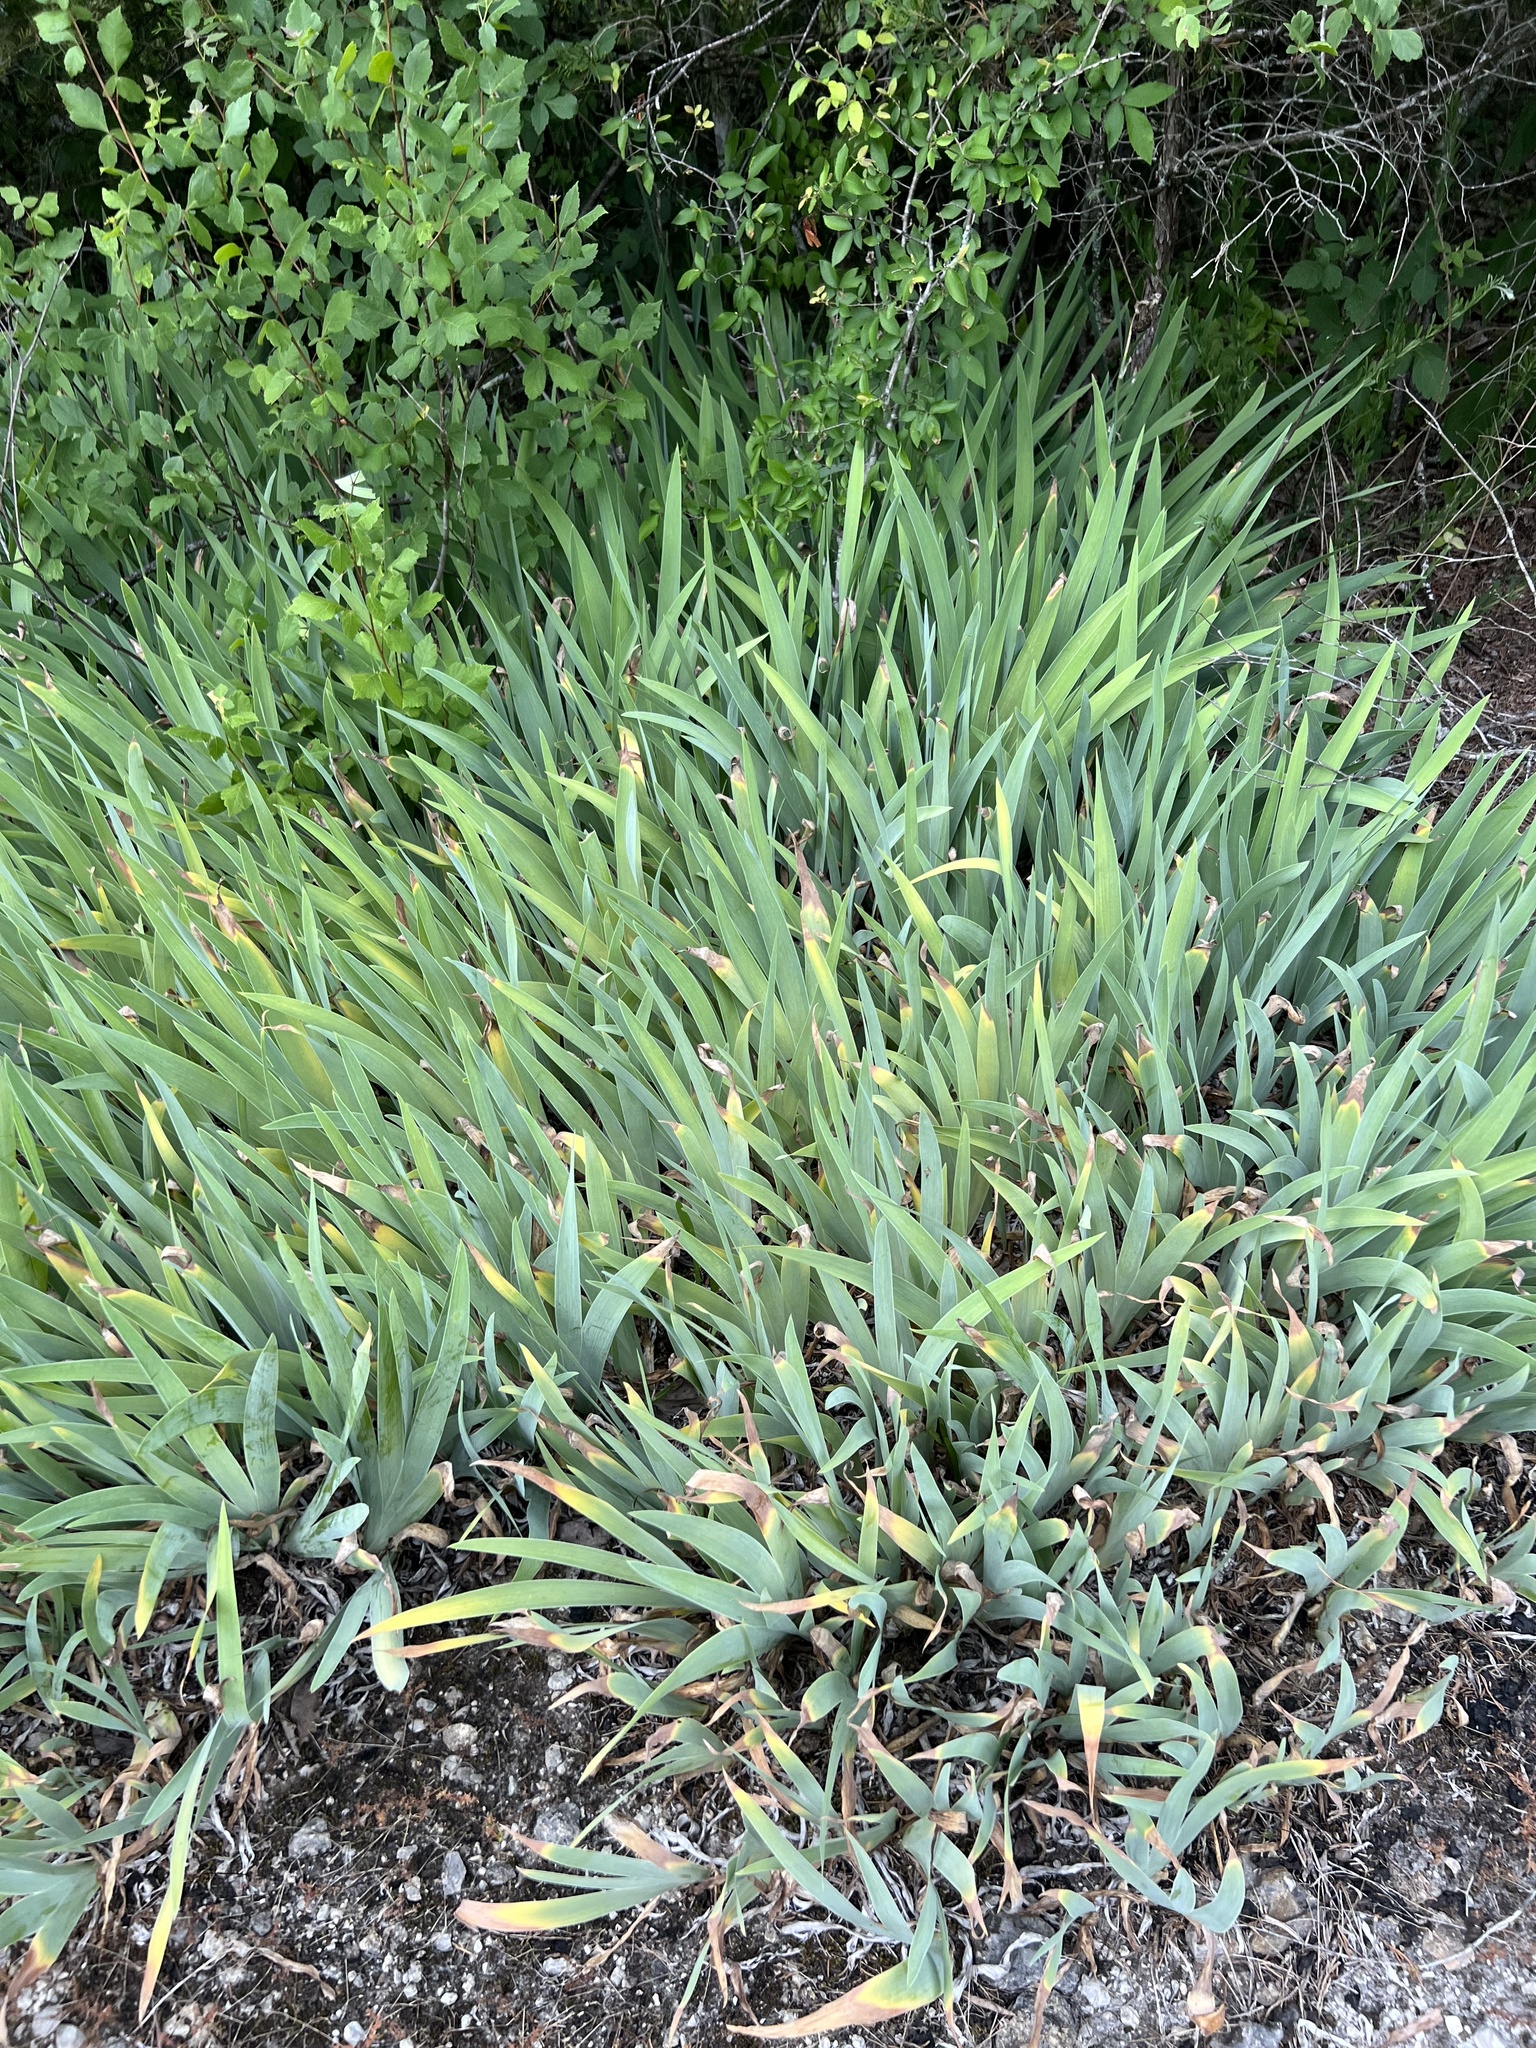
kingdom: Plantae
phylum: Tracheophyta
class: Liliopsida
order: Asparagales
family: Iridaceae
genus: Iris
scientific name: Iris domestica
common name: Belamcanda
